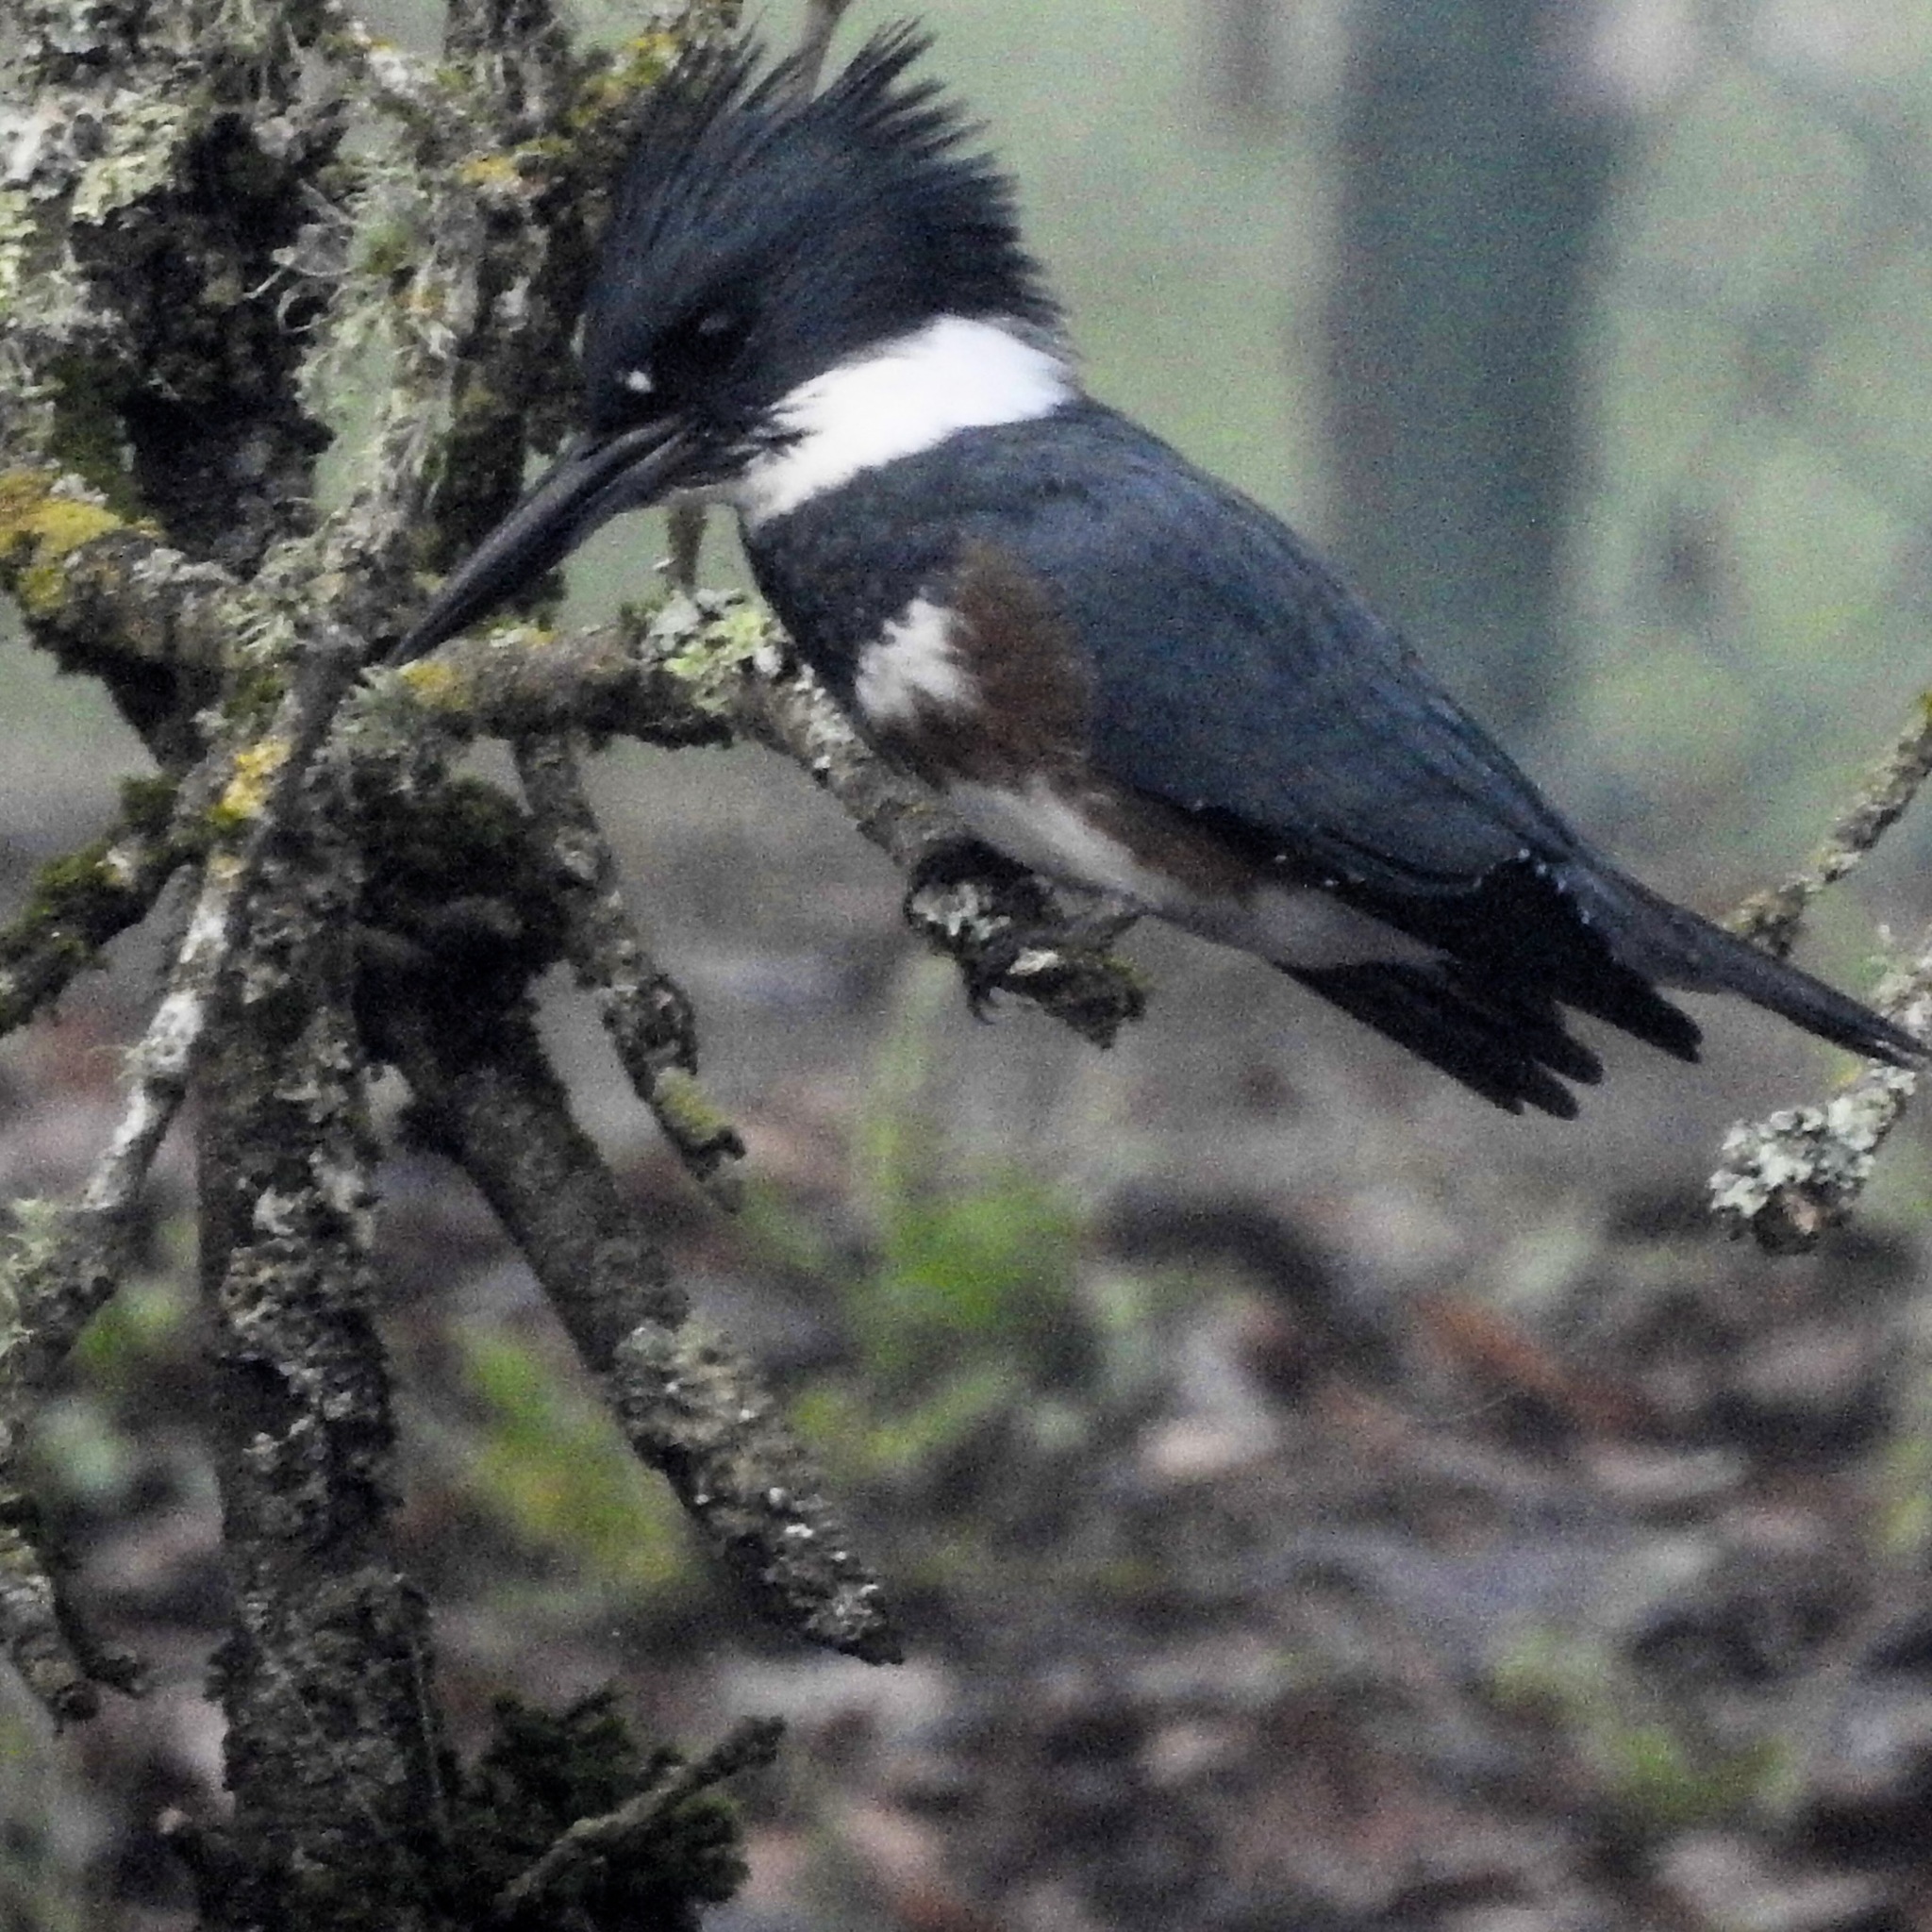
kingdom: Animalia
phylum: Chordata
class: Aves
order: Coraciiformes
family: Alcedinidae
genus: Megaceryle
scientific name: Megaceryle alcyon
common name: Belted kingfisher
